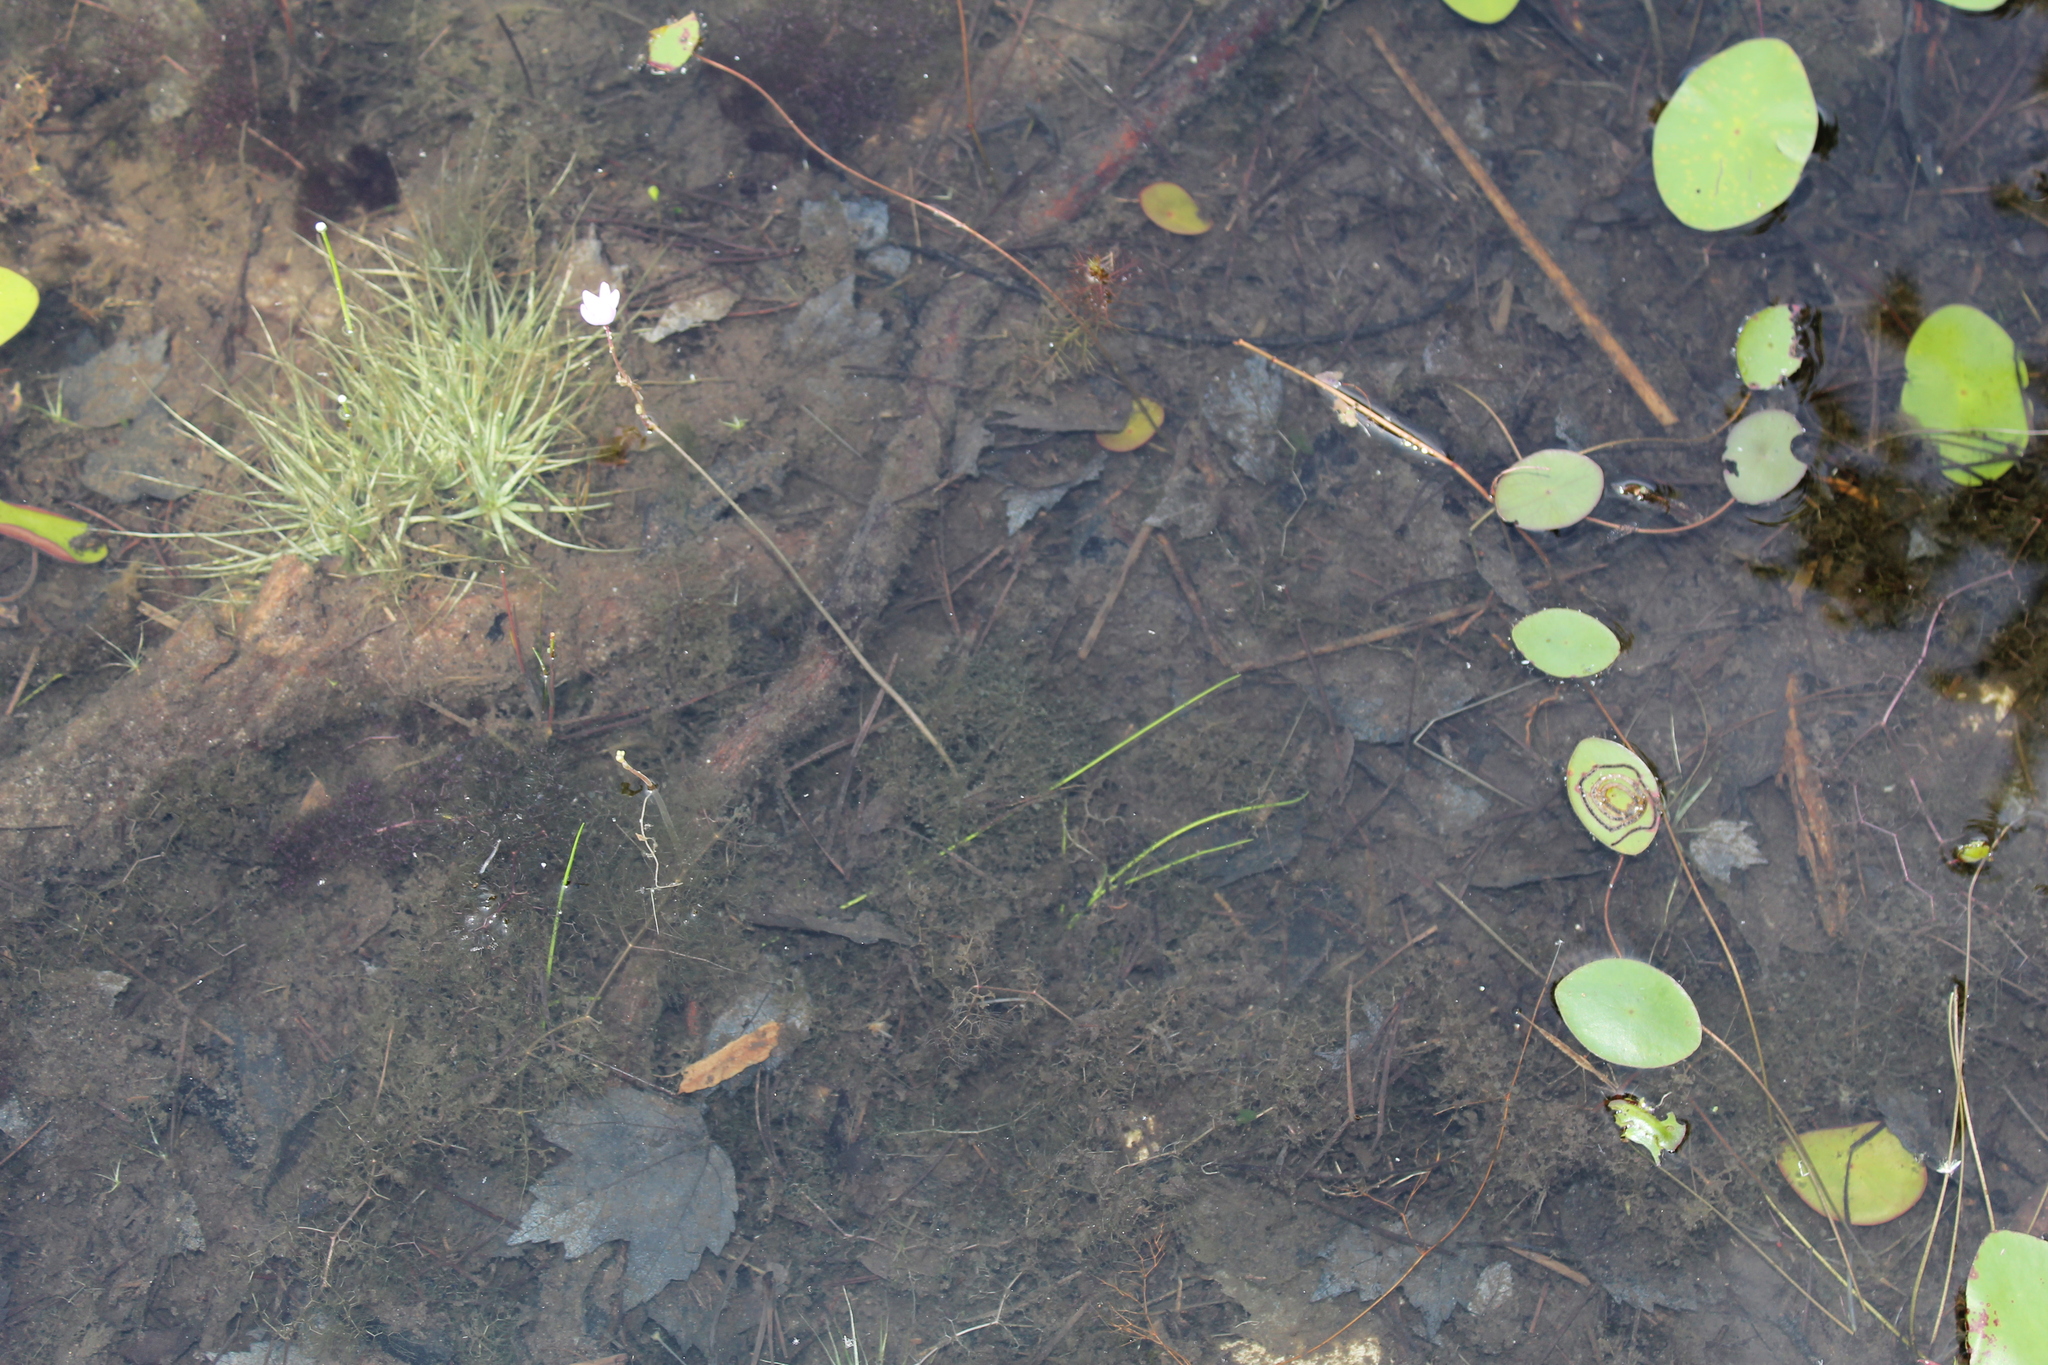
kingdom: Plantae
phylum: Tracheophyta
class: Magnoliopsida
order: Lamiales
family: Lentibulariaceae
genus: Utricularia
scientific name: Utricularia purpurea
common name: Eastern purple bladderwort
